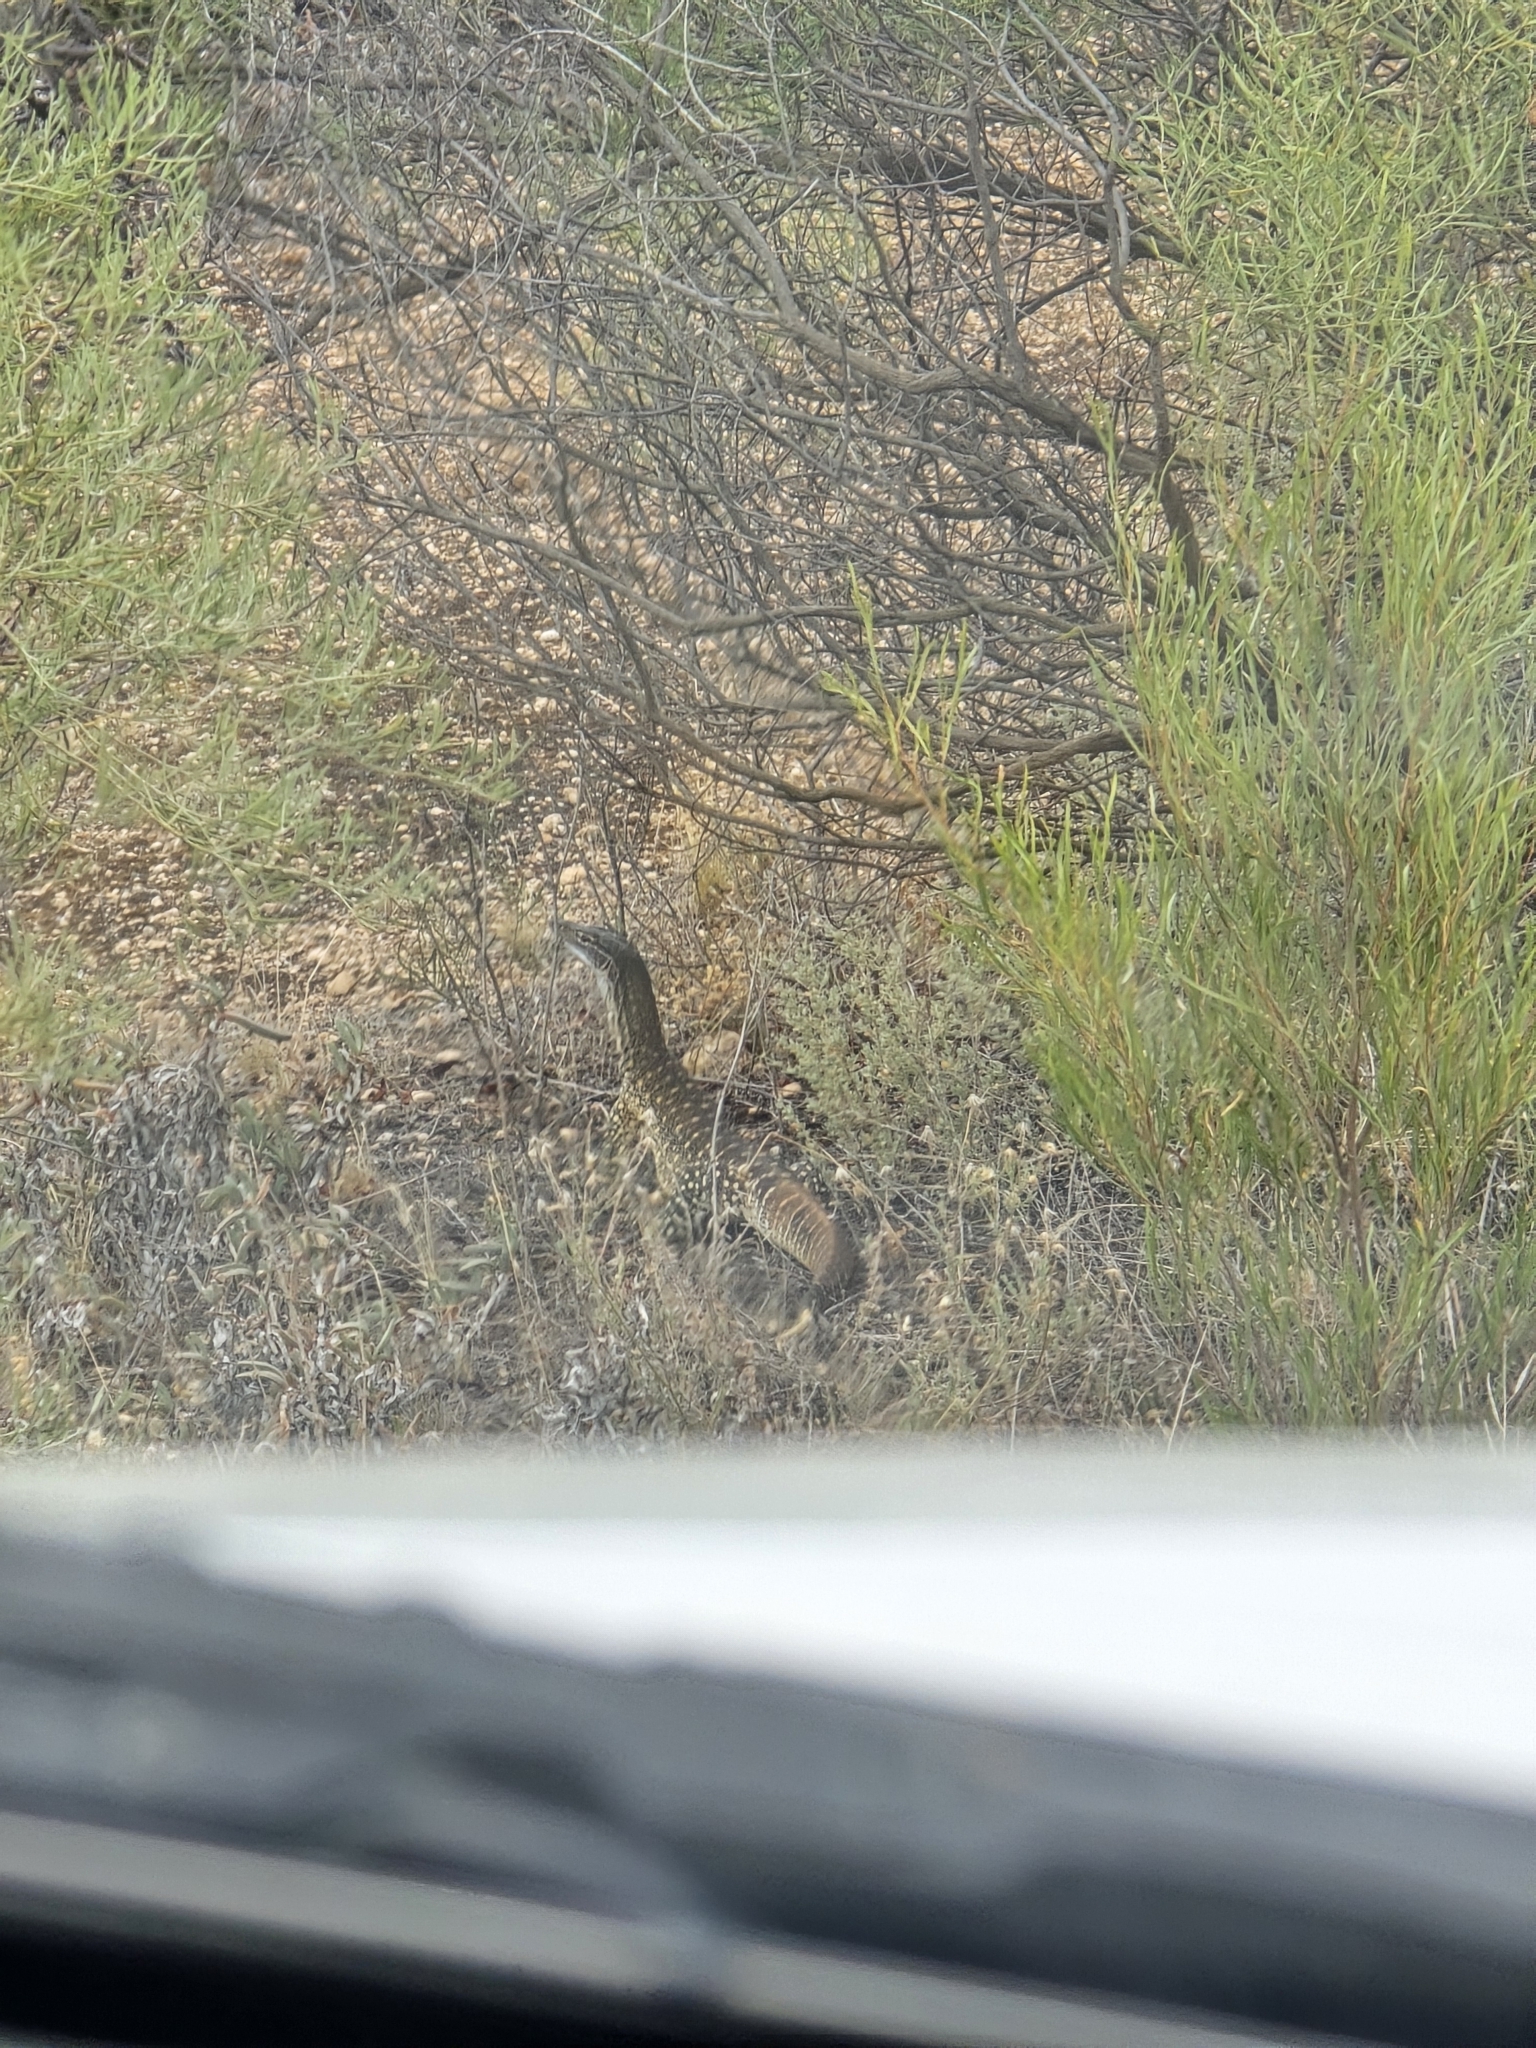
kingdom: Animalia
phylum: Chordata
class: Squamata
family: Varanidae
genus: Varanus
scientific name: Varanus gouldii
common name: Gould's goanna
